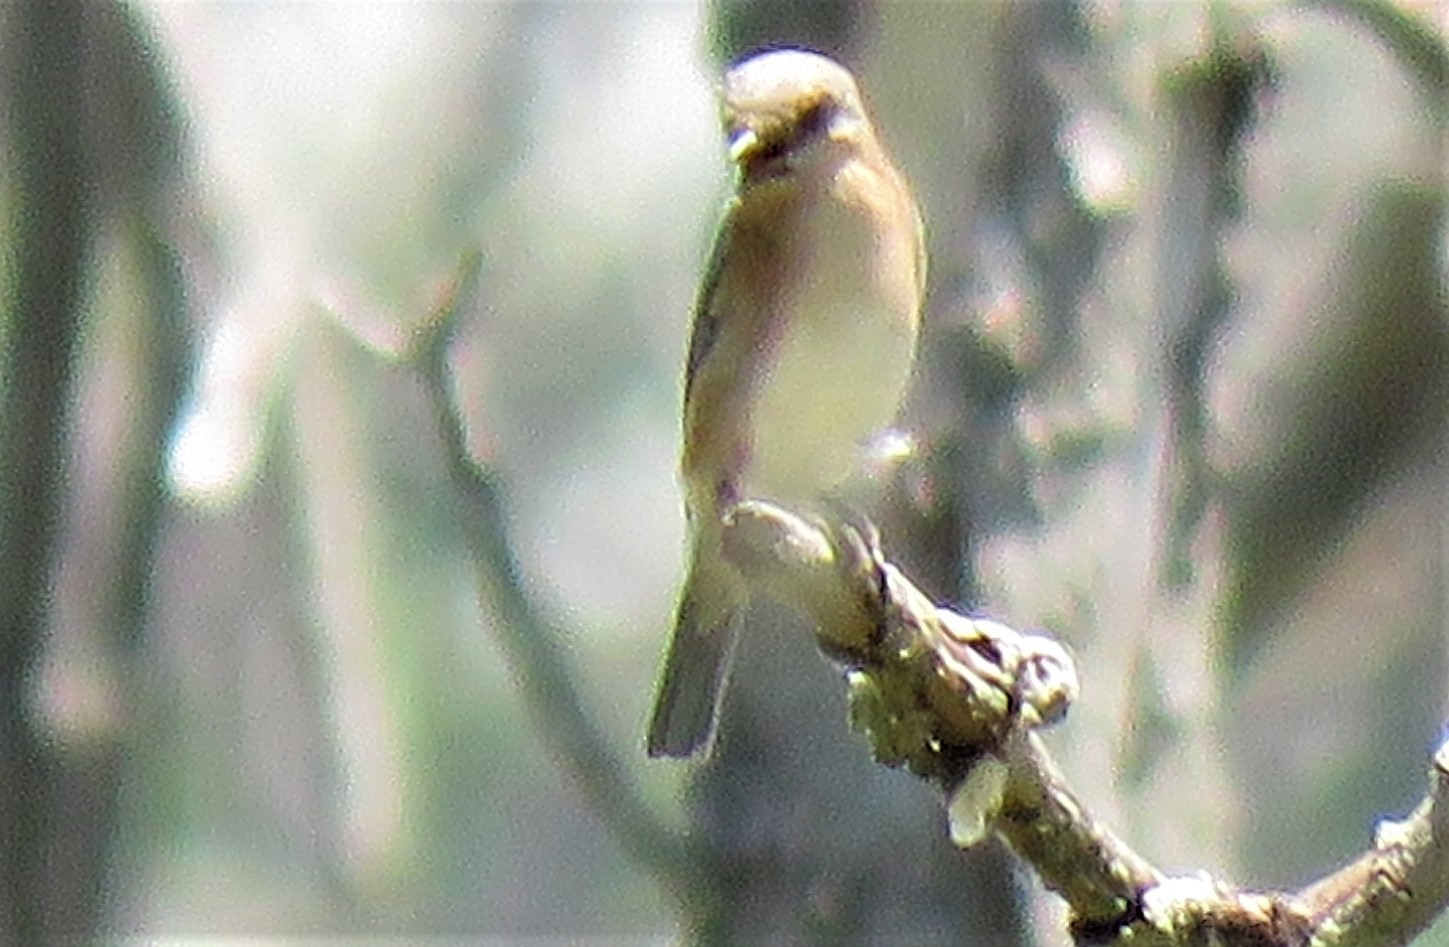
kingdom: Animalia
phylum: Chordata
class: Aves
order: Passeriformes
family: Turdidae
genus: Sialia
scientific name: Sialia sialis
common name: Eastern bluebird
